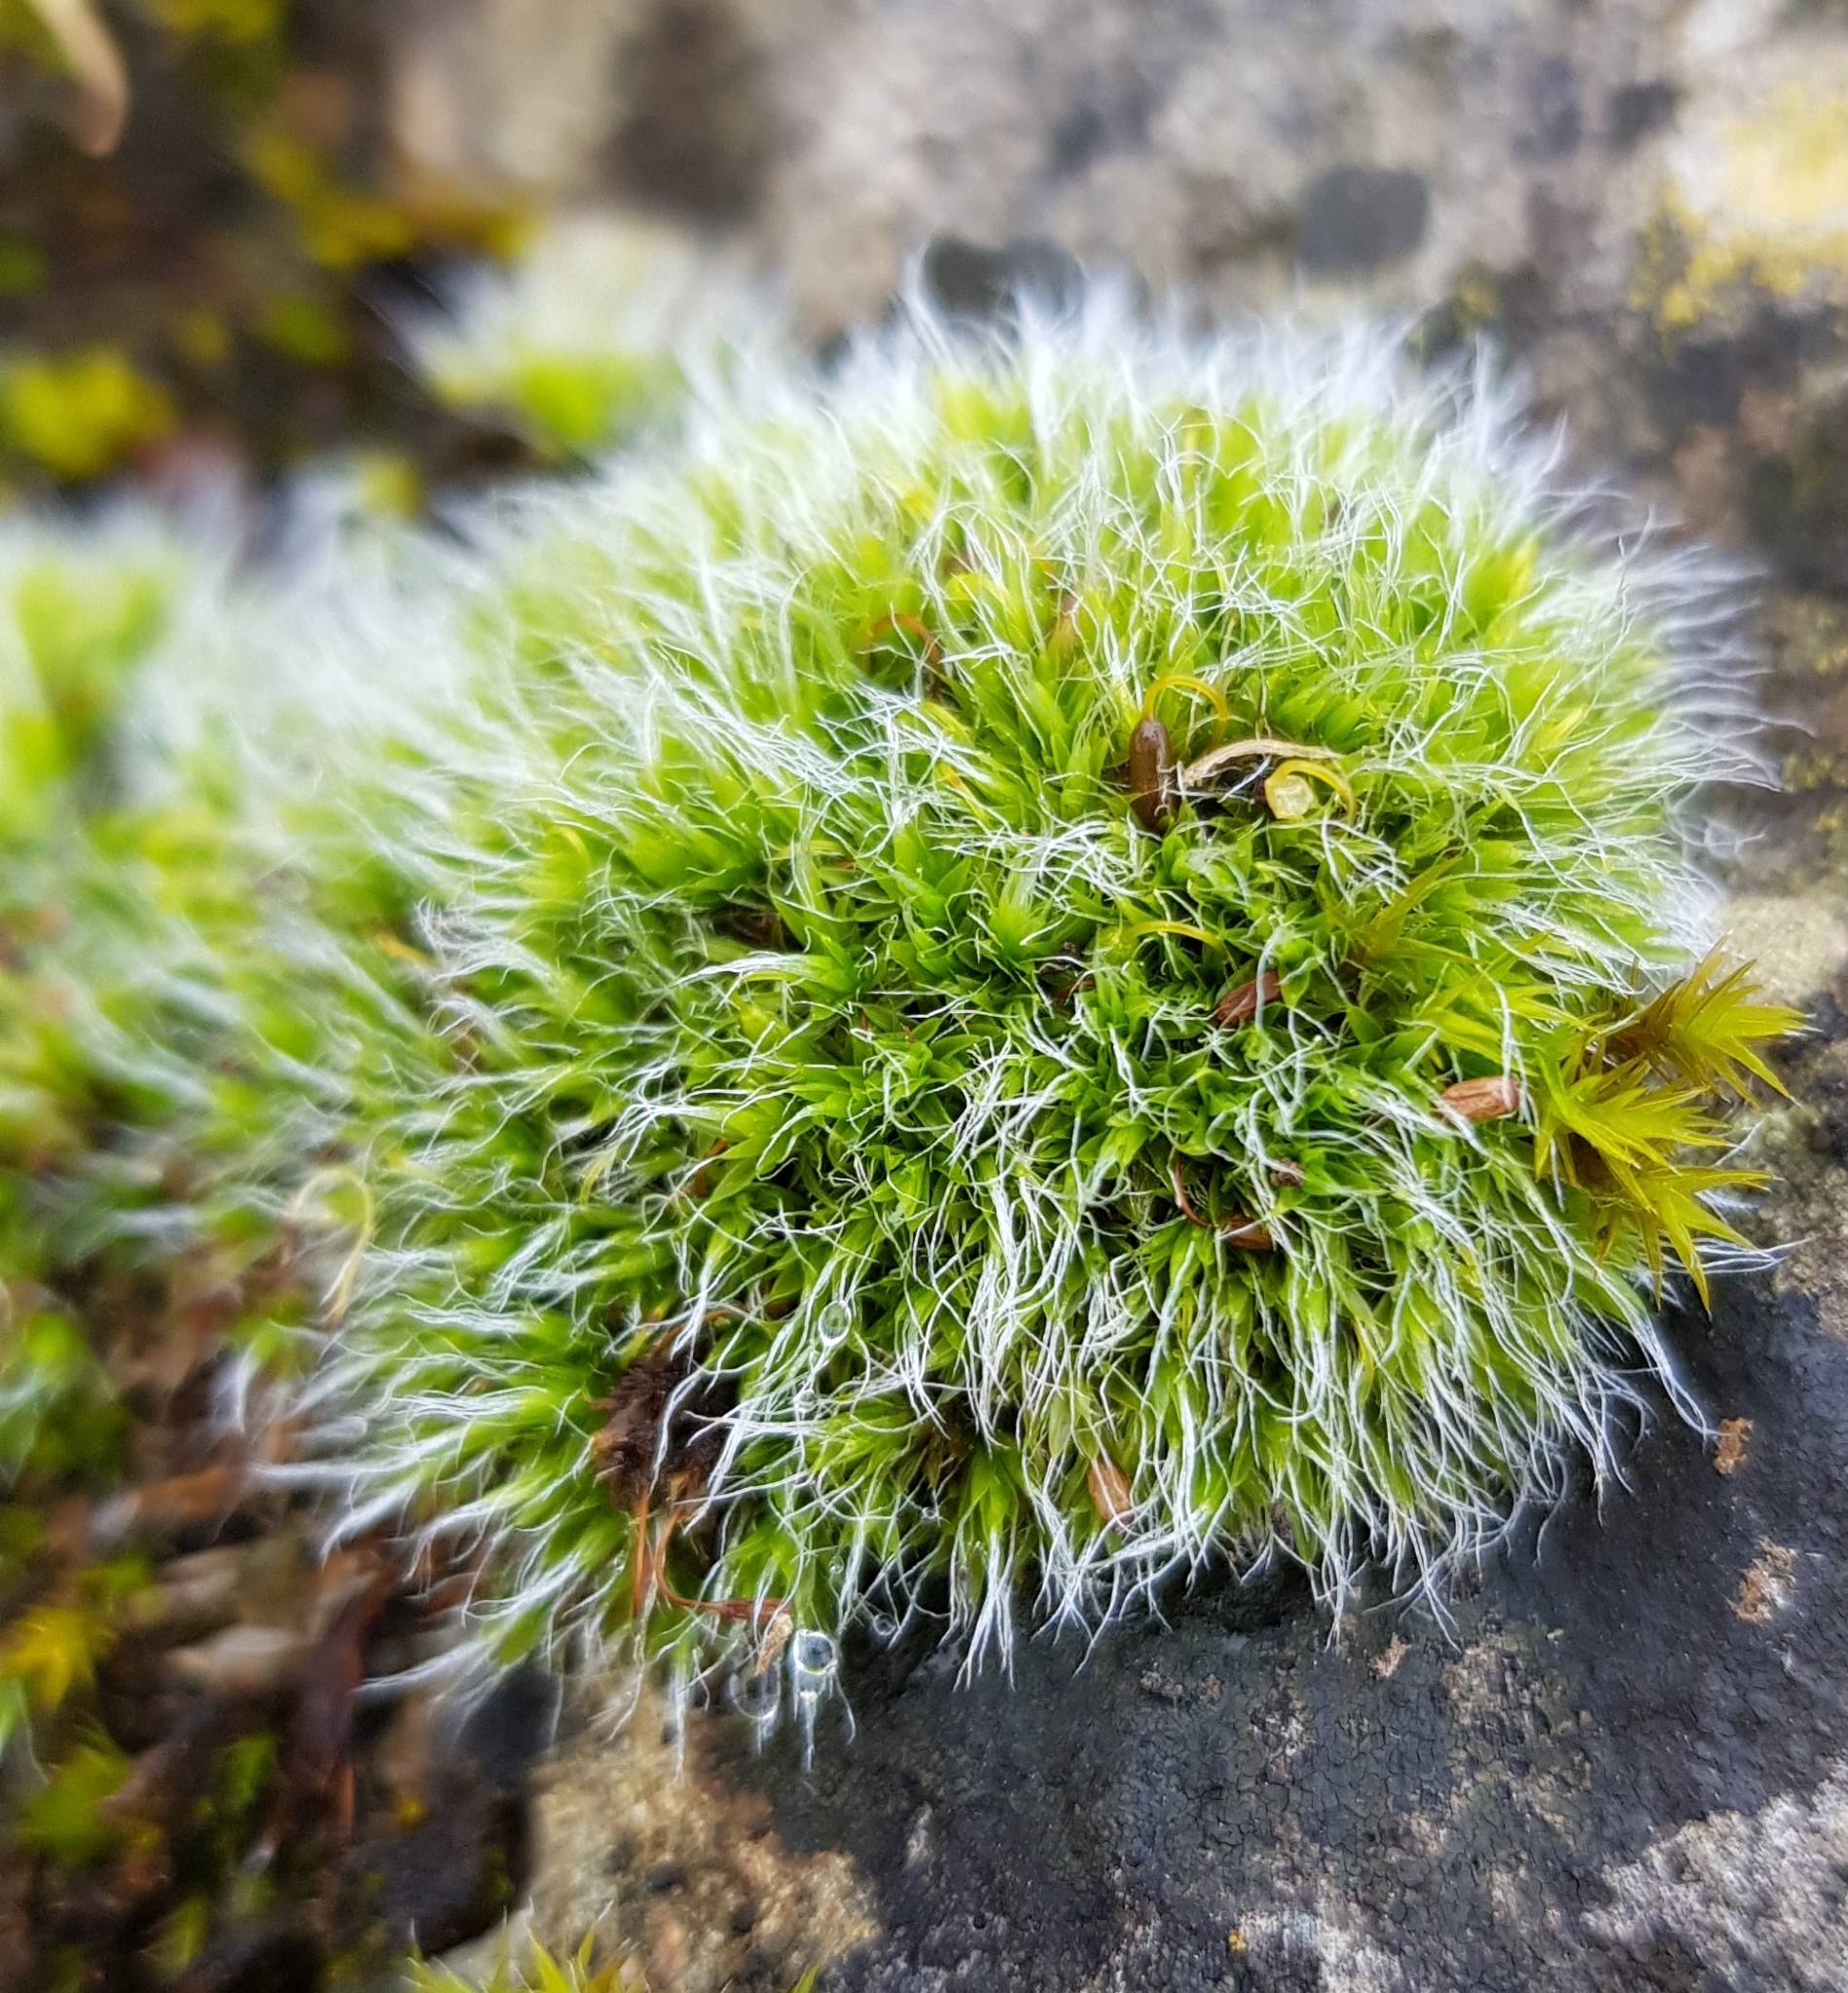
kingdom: Plantae
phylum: Bryophyta
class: Bryopsida
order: Grimmiales
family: Grimmiaceae
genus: Grimmia
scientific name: Grimmia pulvinata
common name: Grey-cushioned grimmia
